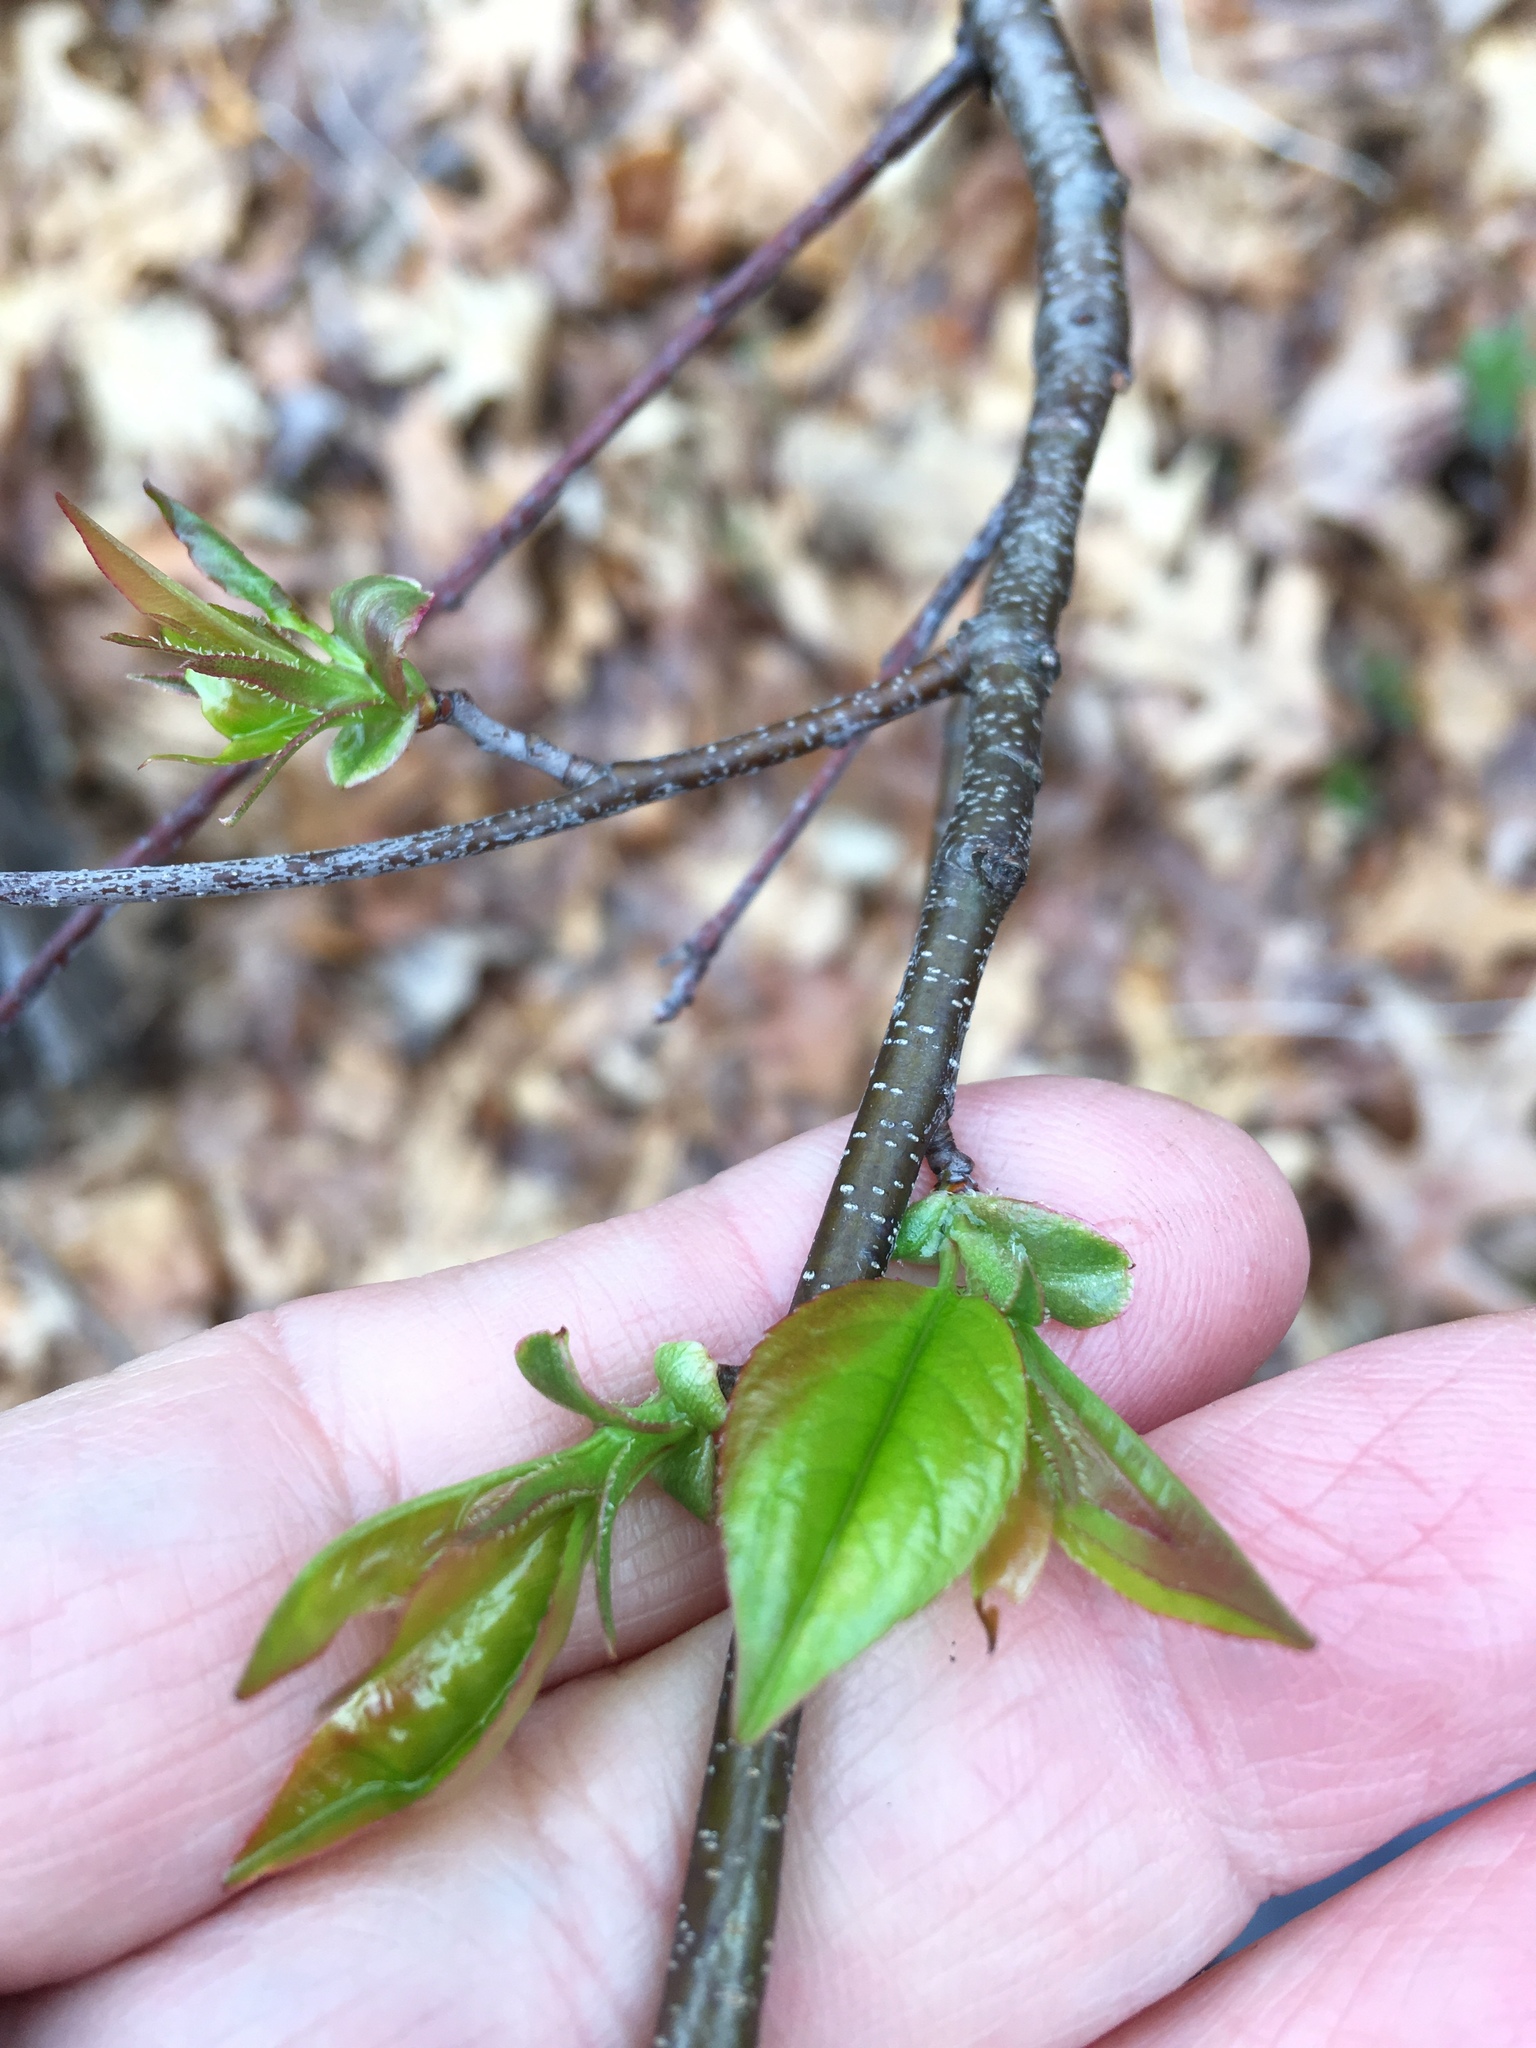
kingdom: Fungi
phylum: Ascomycota
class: Dothideomycetes
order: Venturiales
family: Venturiaceae
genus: Apiosporina
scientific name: Apiosporina morbosa
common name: Black knot
